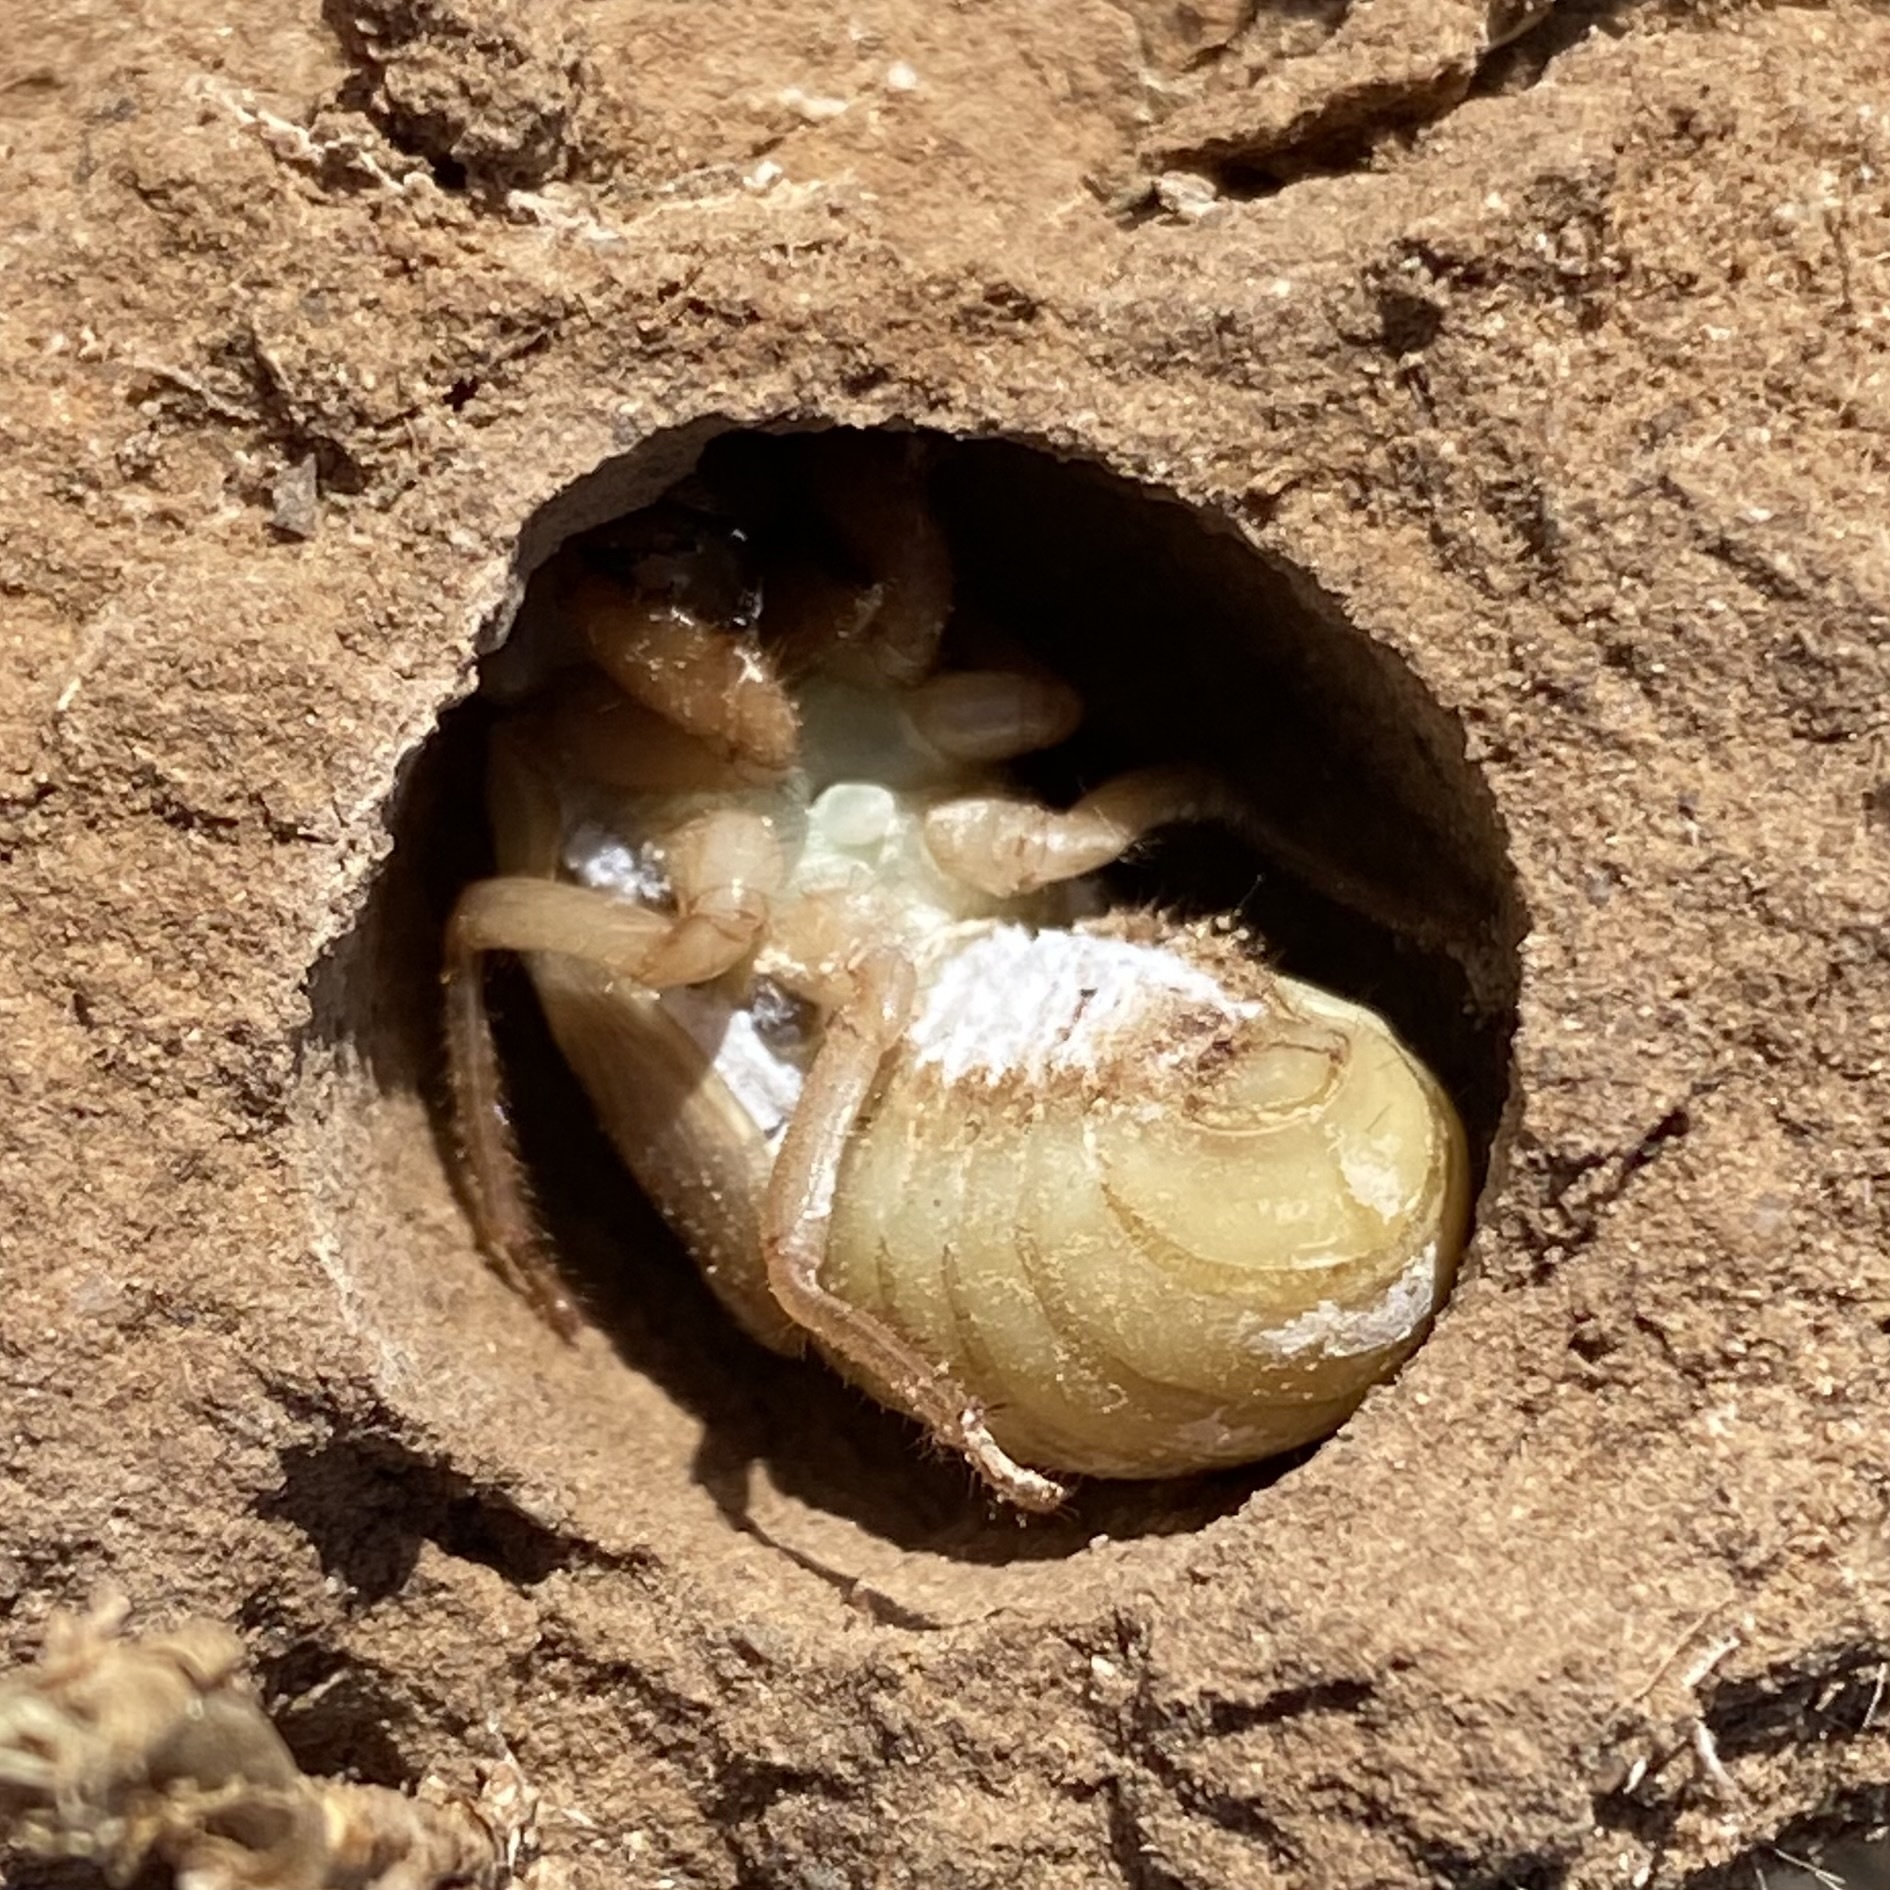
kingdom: Animalia
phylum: Arthropoda
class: Insecta
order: Hemiptera
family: Cicadidae
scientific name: Cicadidae
